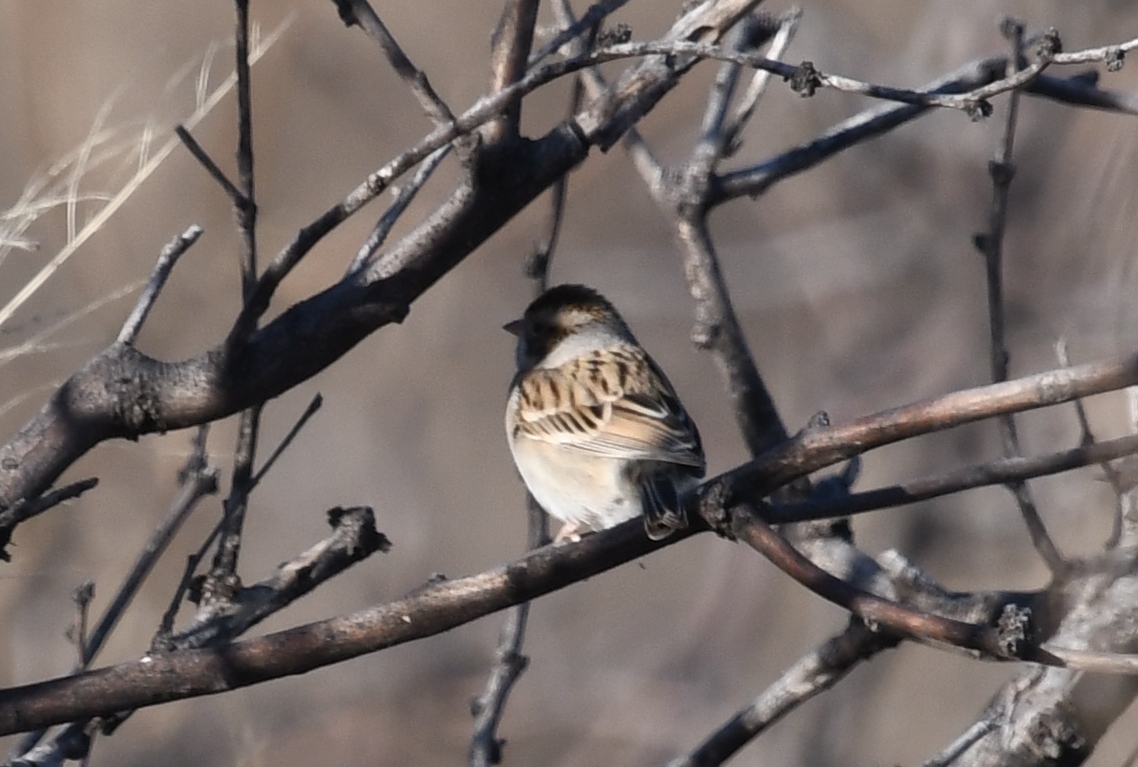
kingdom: Animalia
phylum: Chordata
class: Aves
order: Passeriformes
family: Passerellidae
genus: Spizella
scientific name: Spizella pallida
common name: Clay-colored sparrow
